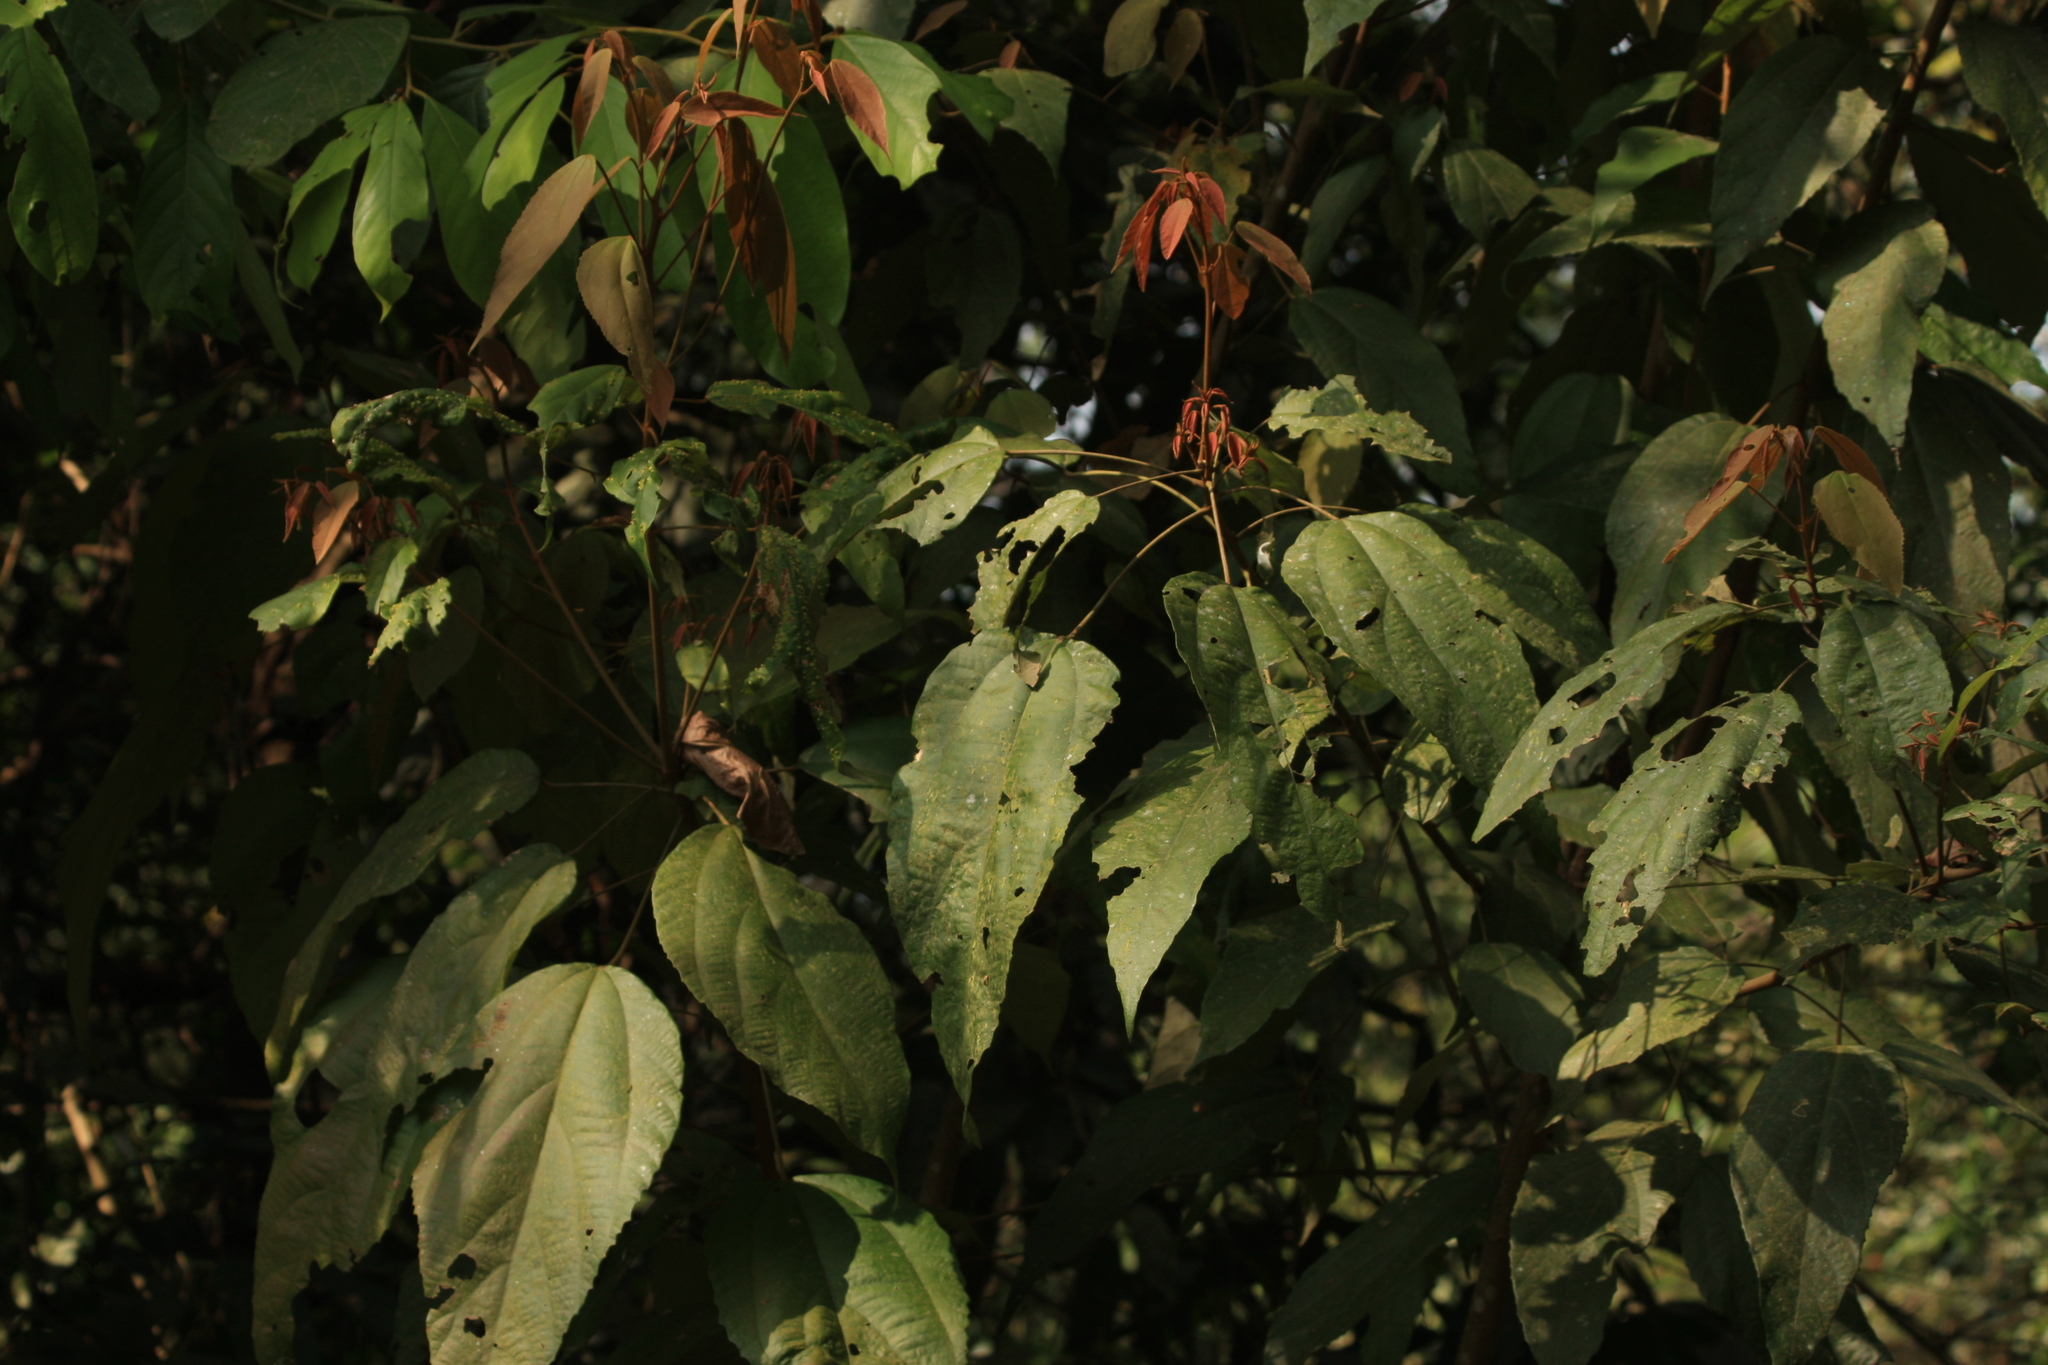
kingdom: Plantae
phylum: Tracheophyta
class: Magnoliopsida
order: Malpighiales
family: Euphorbiaceae
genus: Mallotus
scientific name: Mallotus philippensis
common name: Kamala tree
